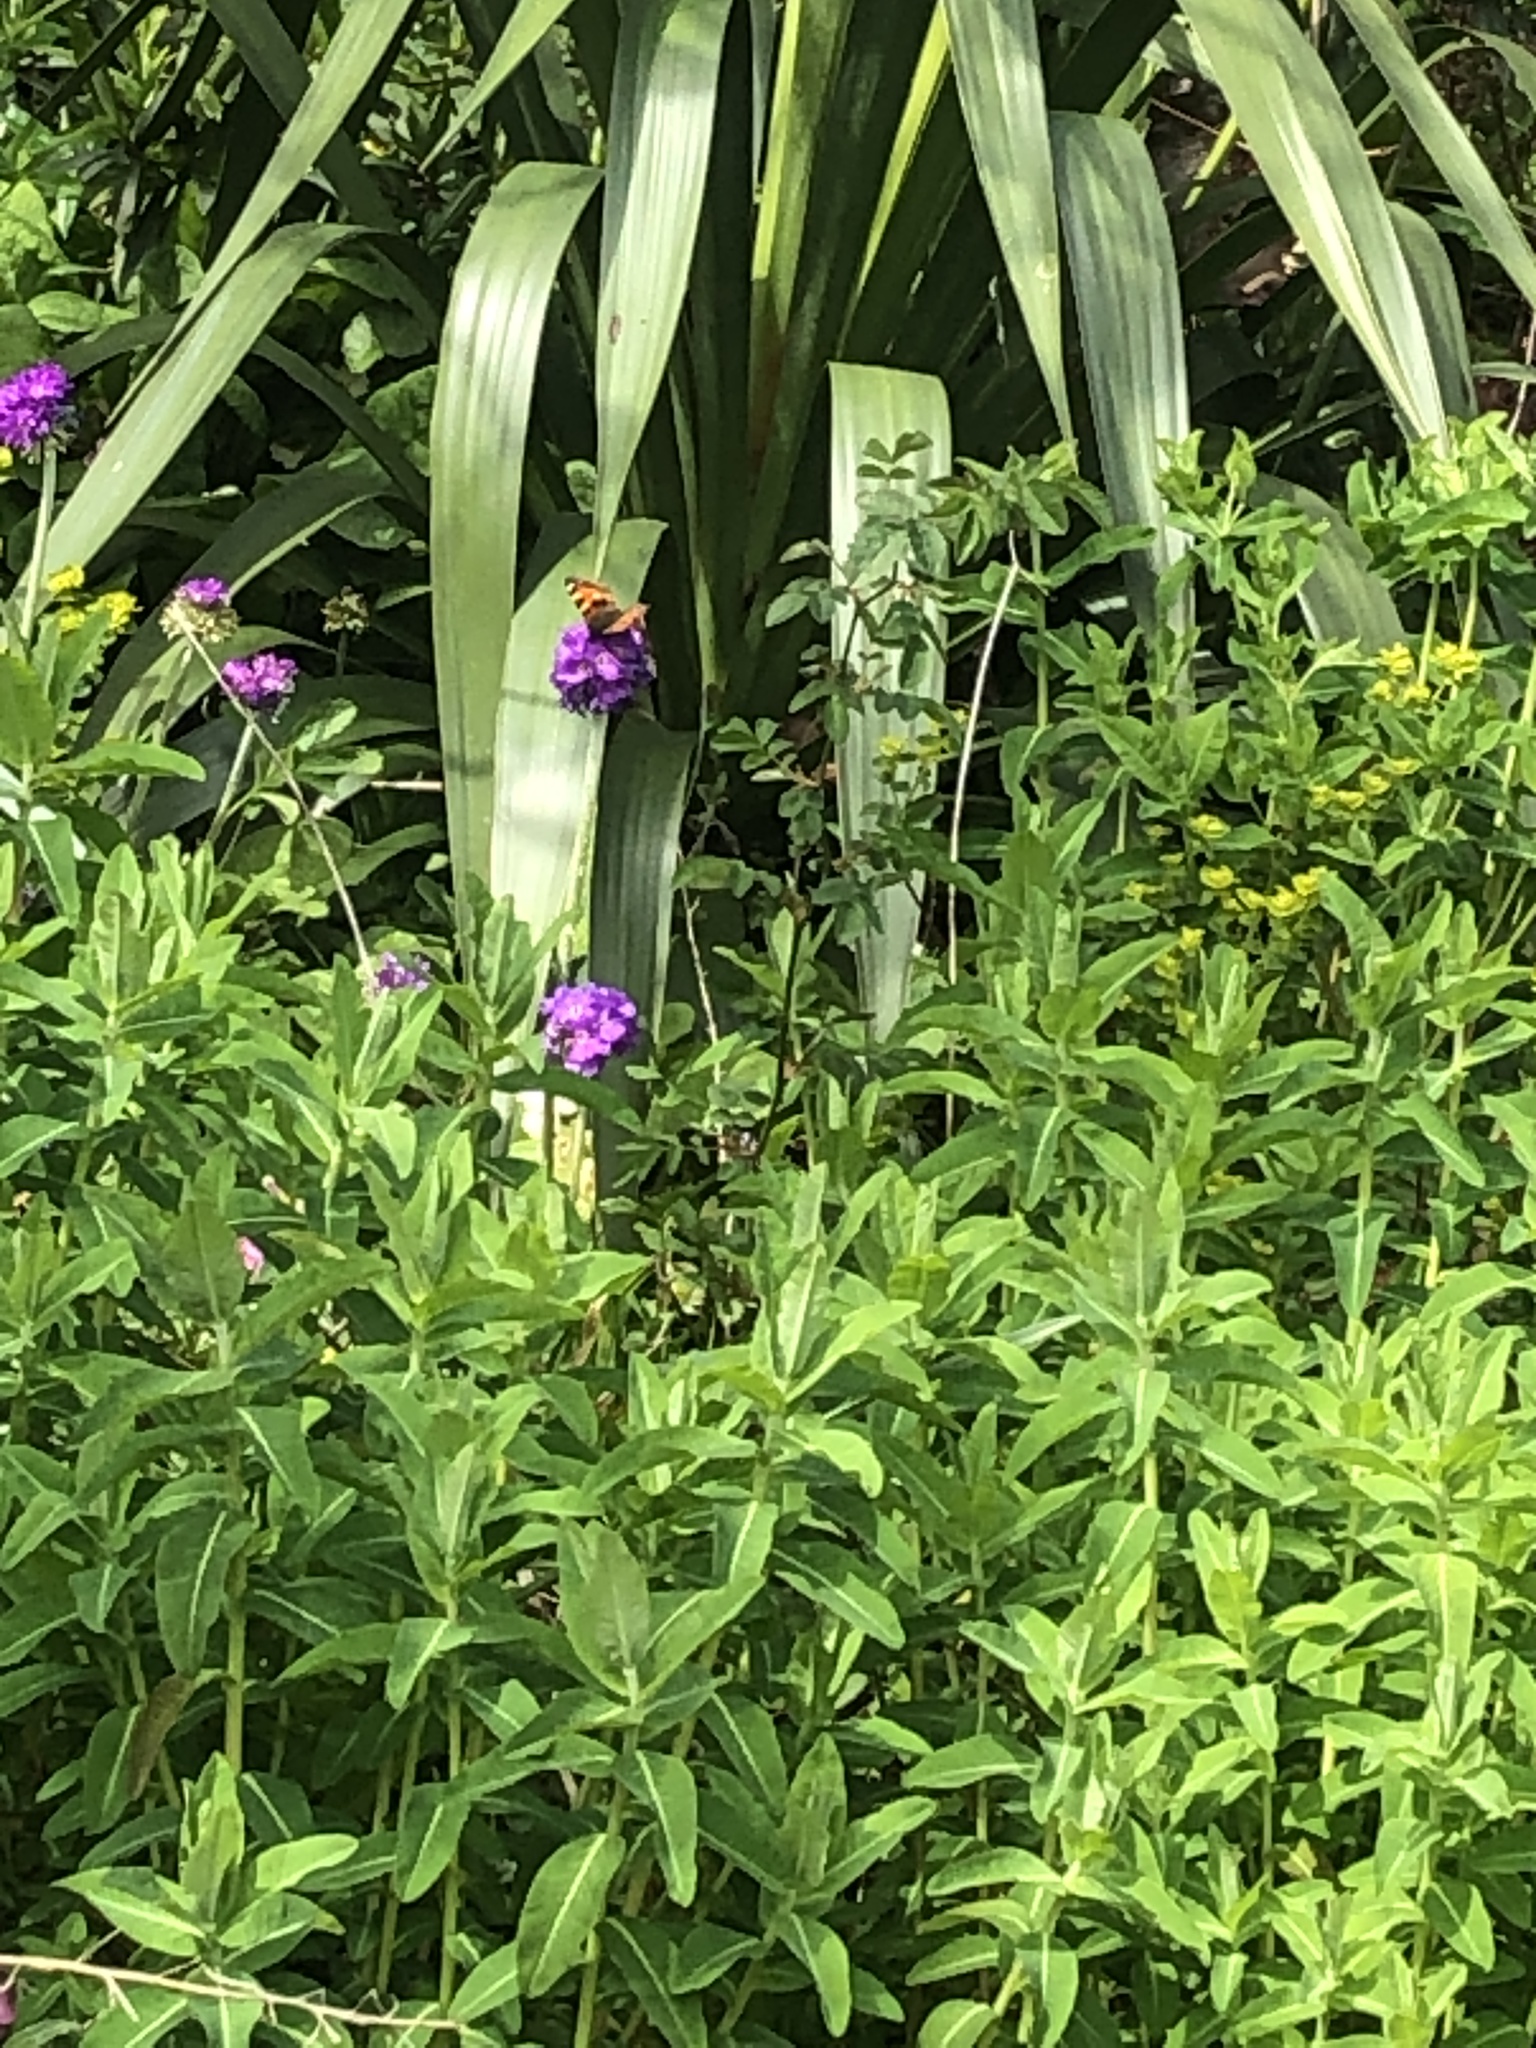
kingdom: Animalia
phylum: Arthropoda
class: Insecta
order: Lepidoptera
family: Nymphalidae
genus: Aglais
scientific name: Aglais urticae
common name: Small tortoiseshell
